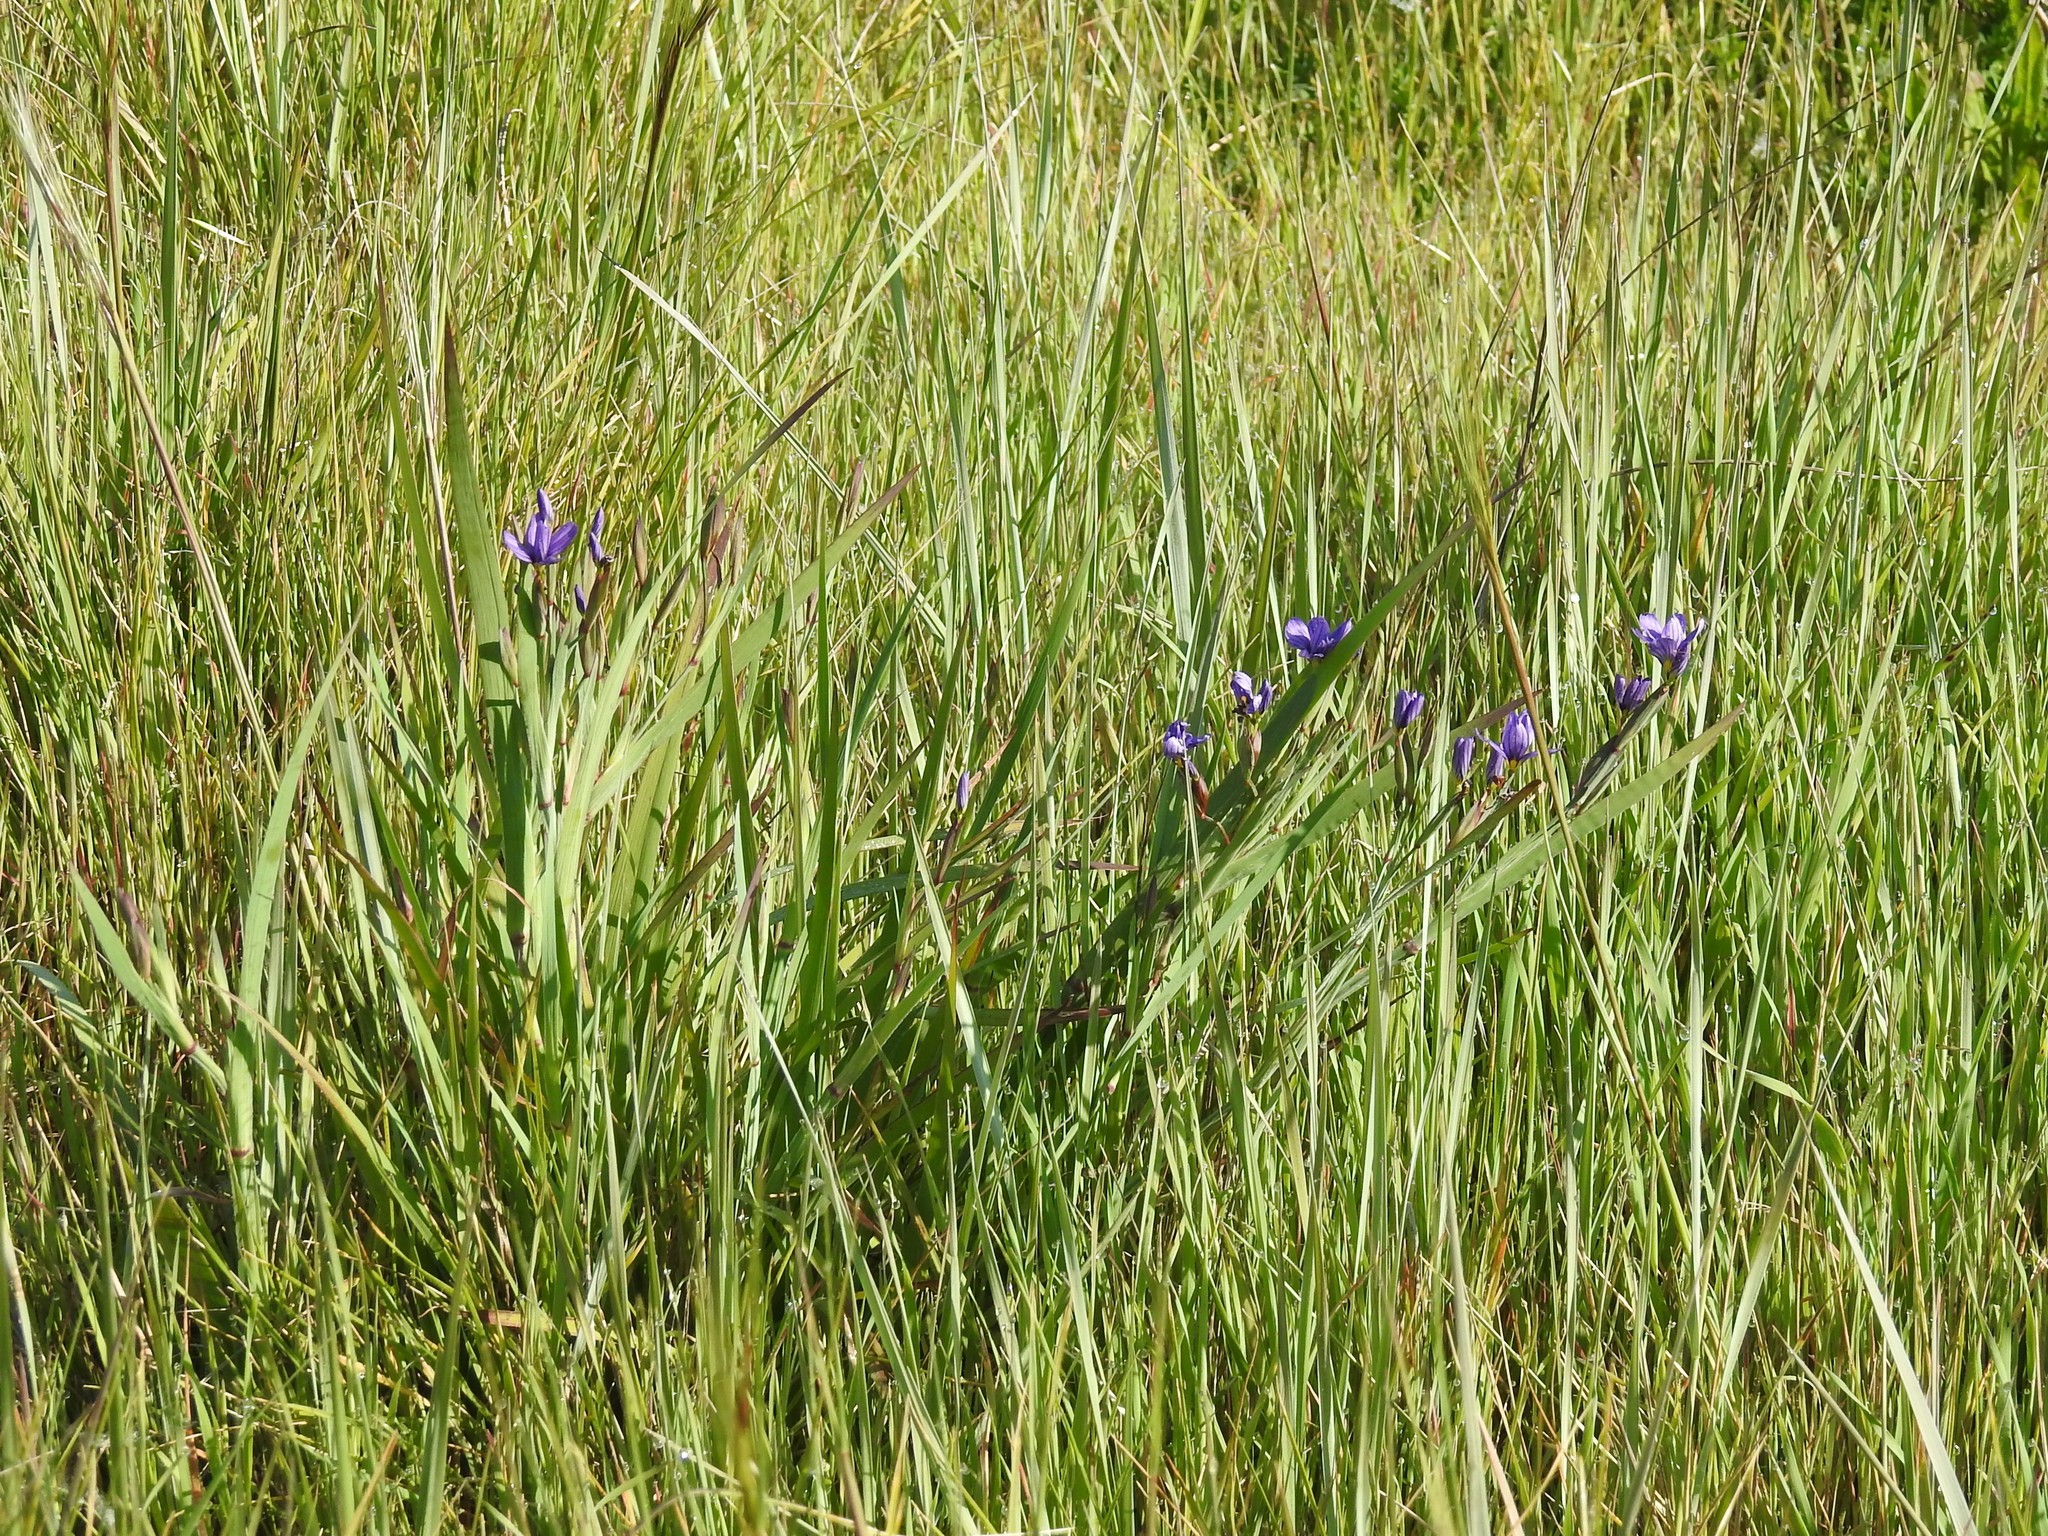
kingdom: Plantae
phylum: Tracheophyta
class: Liliopsida
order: Asparagales
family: Iridaceae
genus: Sisyrinchium
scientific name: Sisyrinchium bellum
